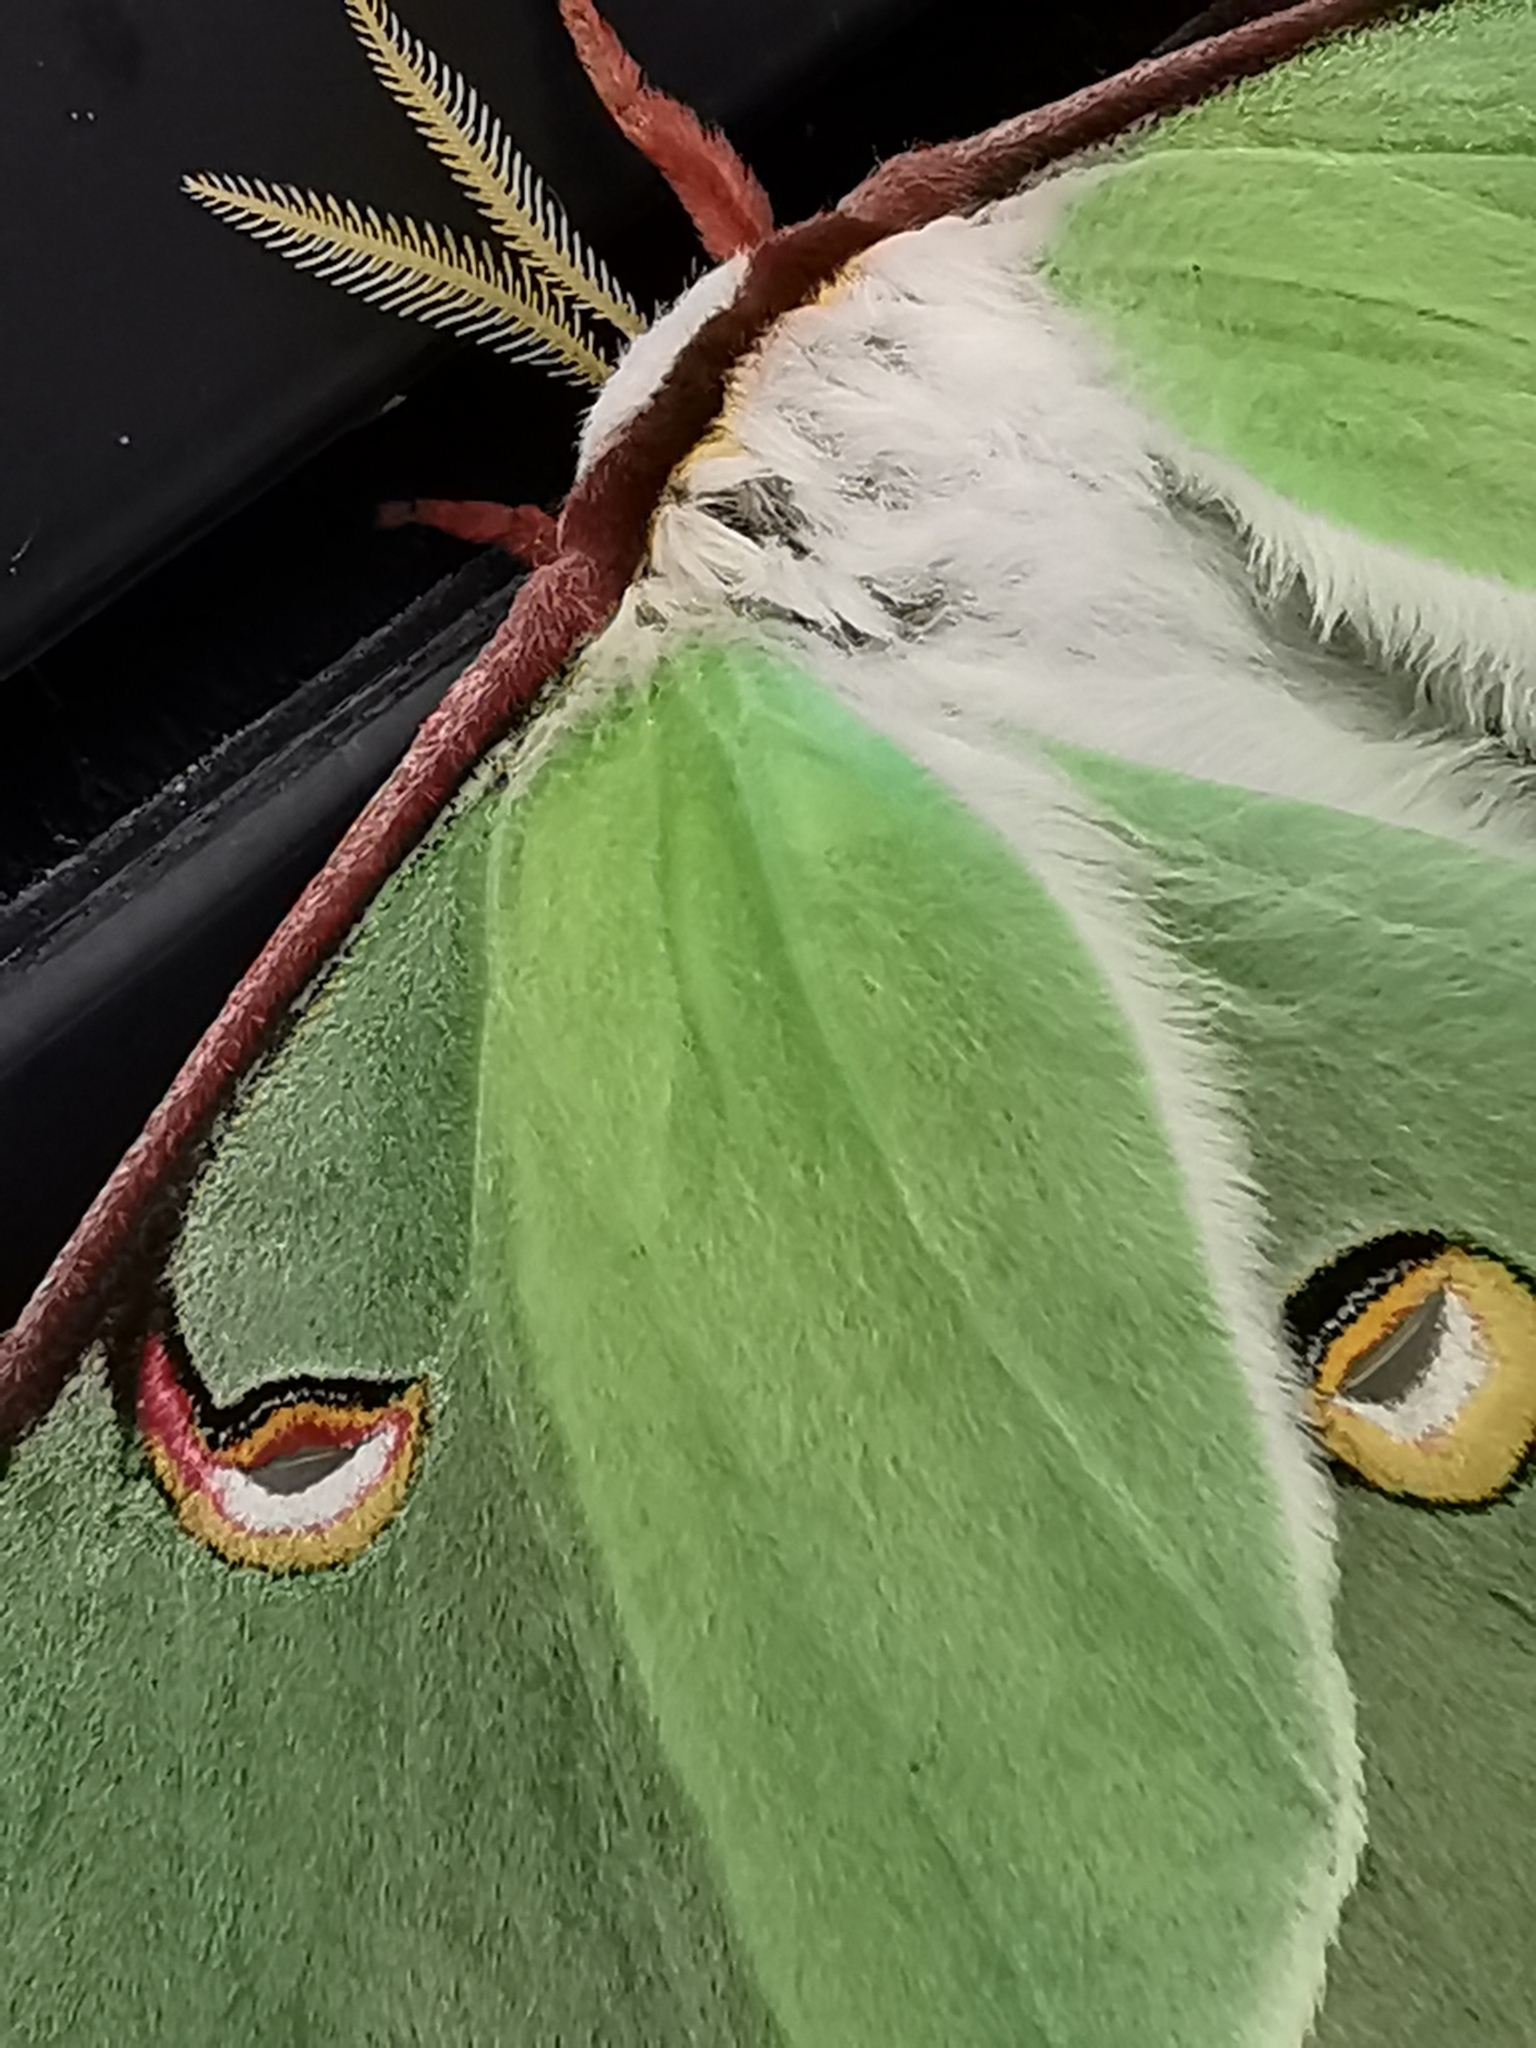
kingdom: Animalia
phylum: Arthropoda
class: Insecta
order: Lepidoptera
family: Saturniidae
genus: Actias
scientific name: Actias luna
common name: Luna moth
